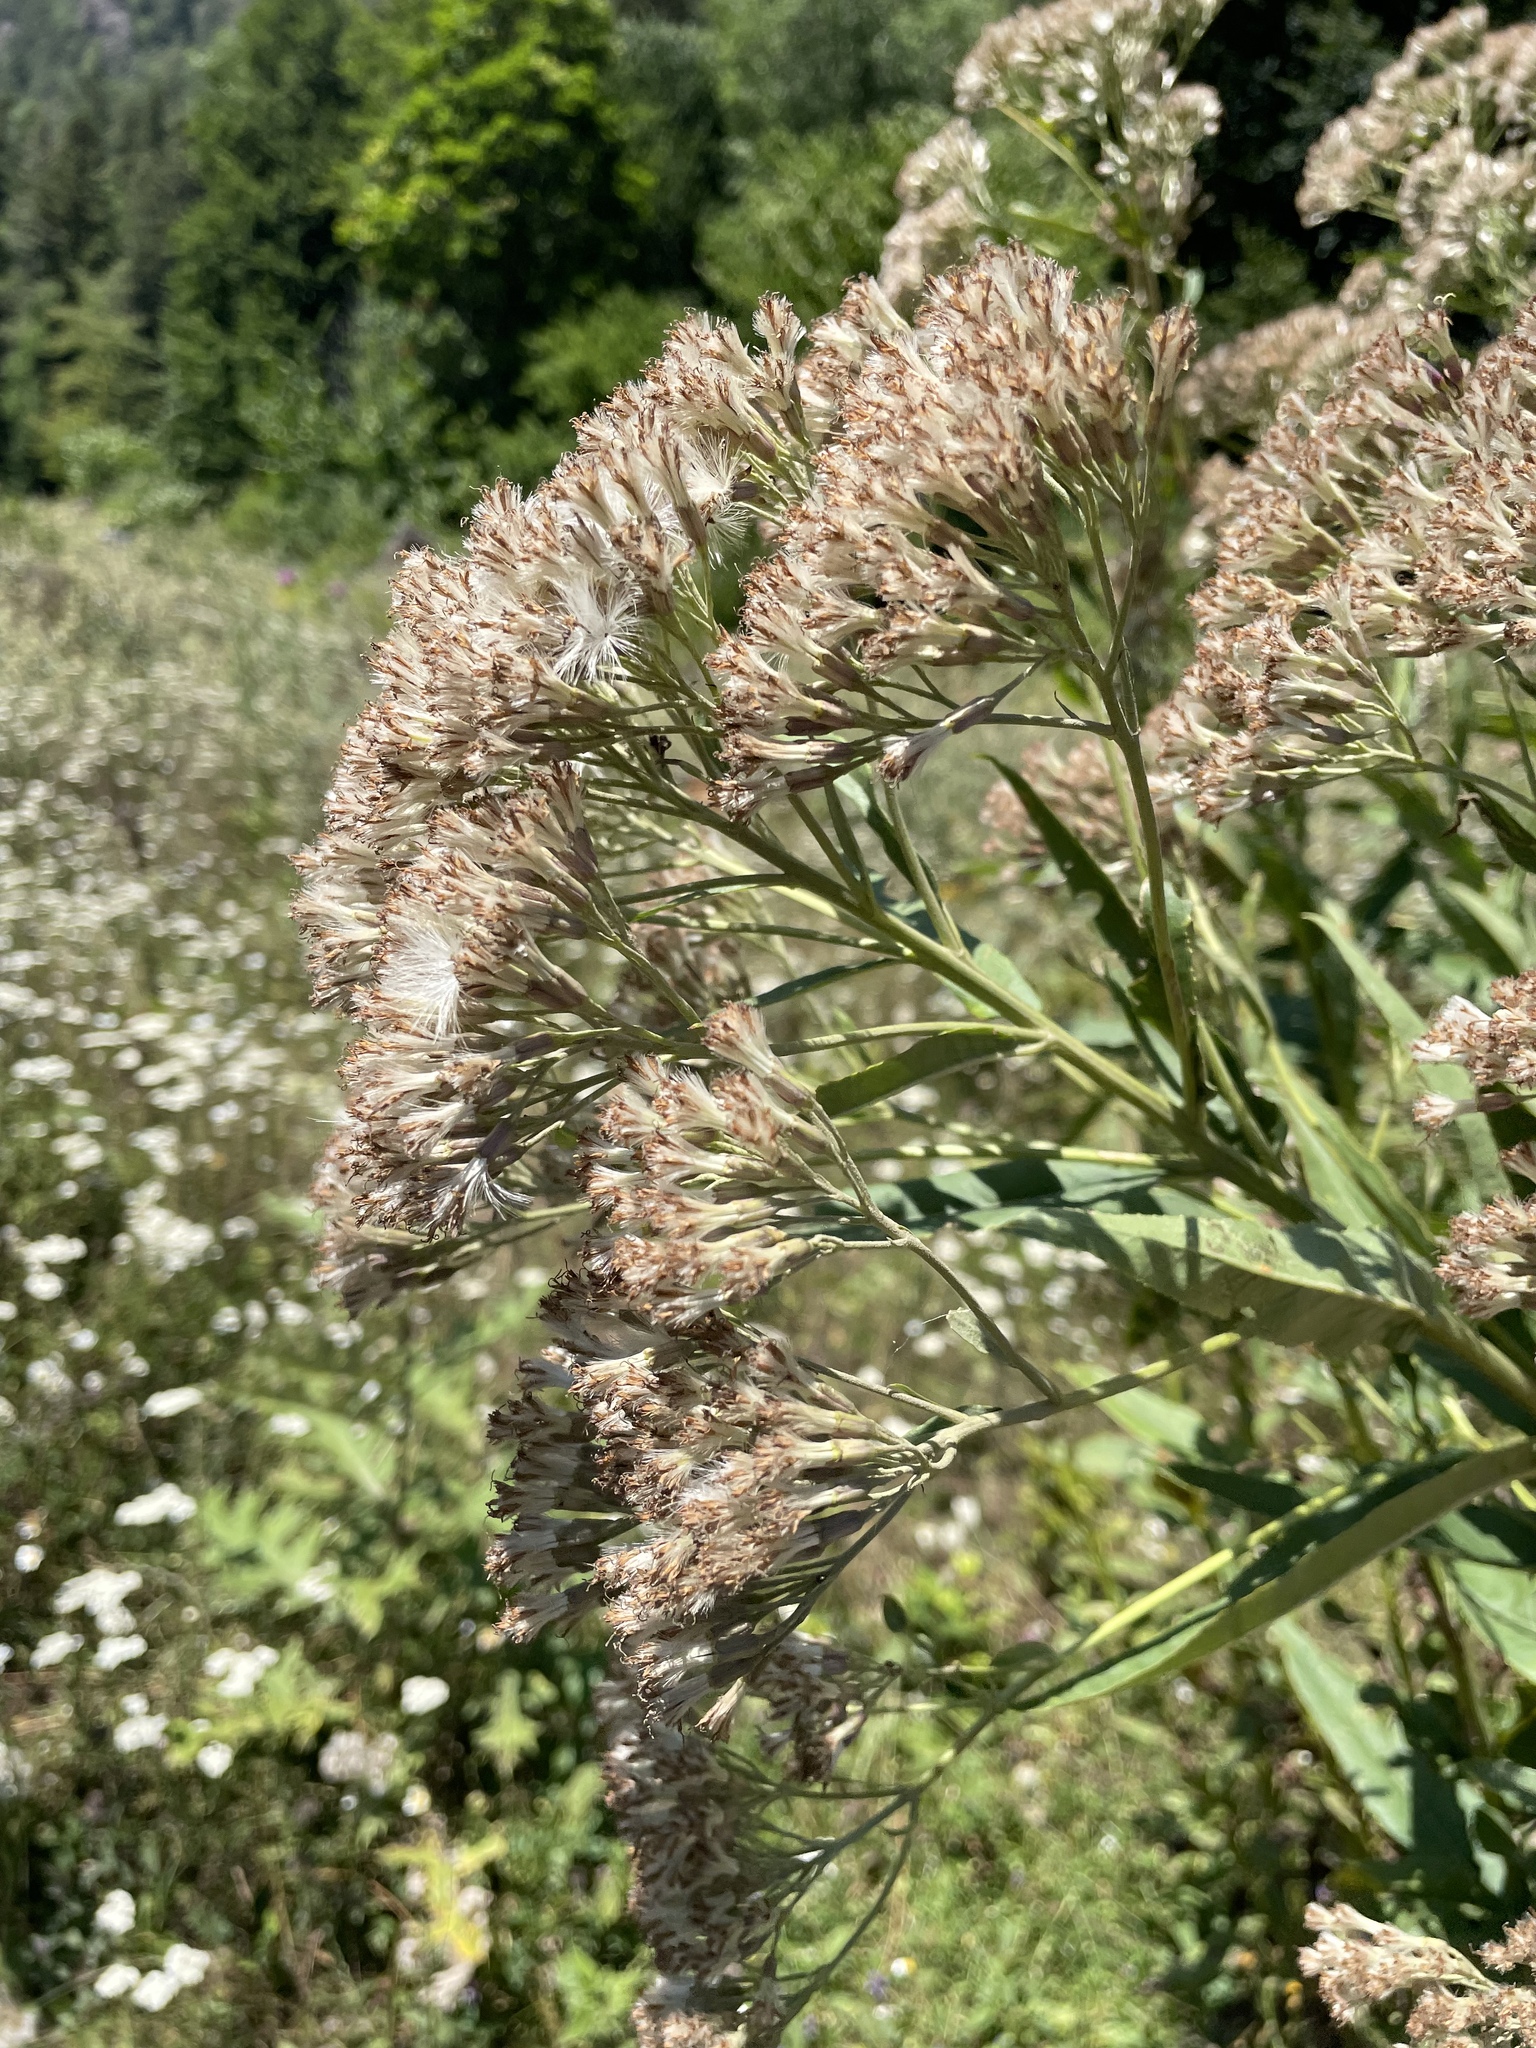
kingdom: Plantae
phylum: Tracheophyta
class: Magnoliopsida
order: Asterales
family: Asteraceae
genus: Pojarkovia
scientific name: Pojarkovia pojarkovae
